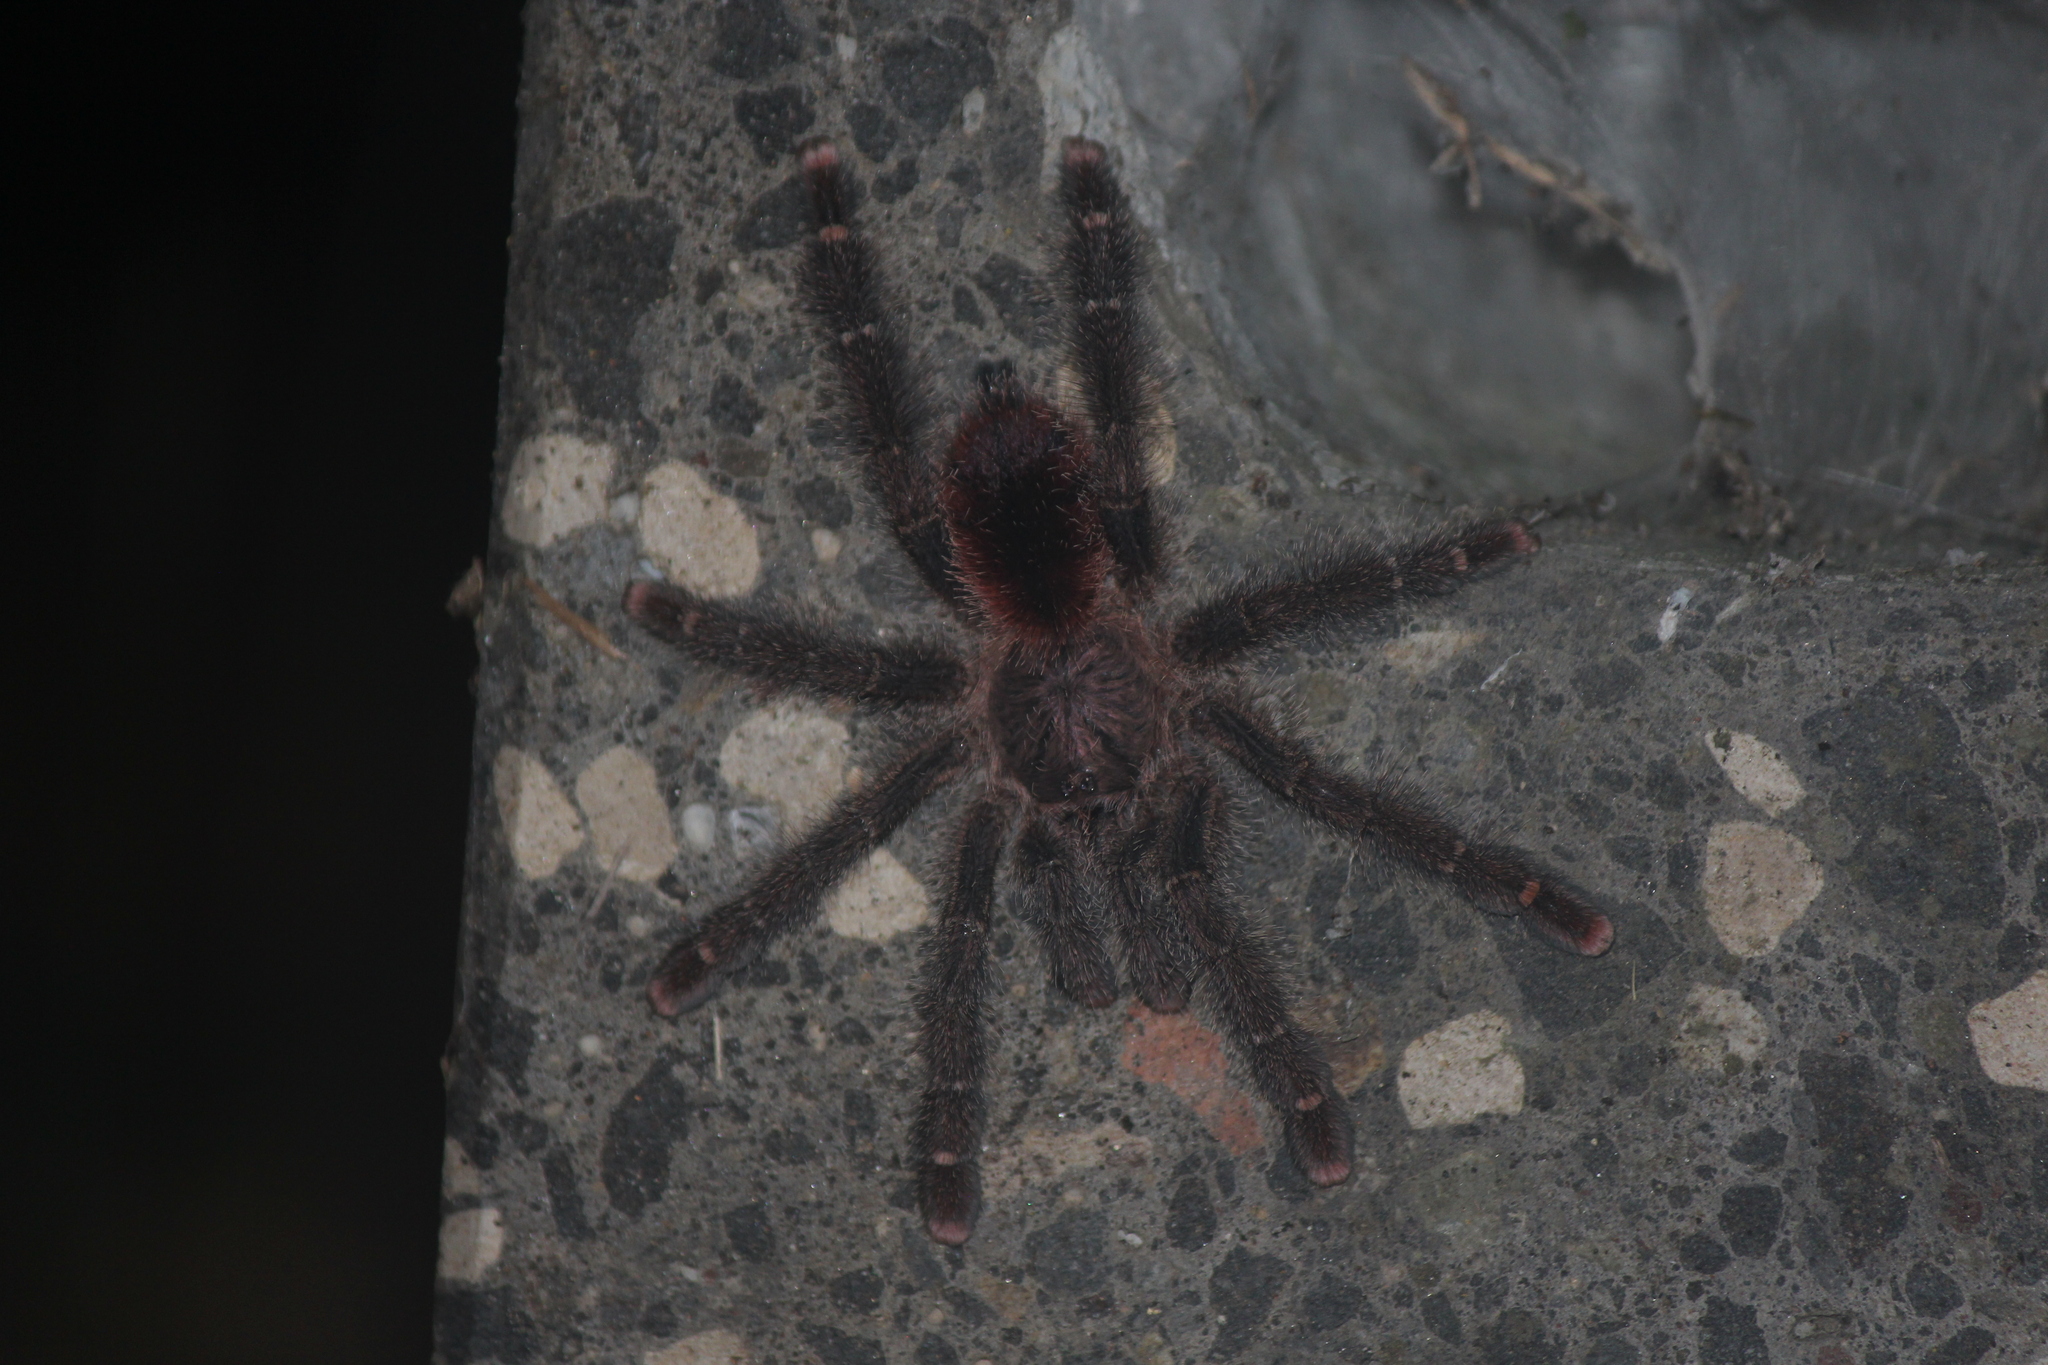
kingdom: Animalia
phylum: Arthropoda
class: Arachnida
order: Araneae
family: Theraphosidae
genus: Avicularia
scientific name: Avicularia juruensis
